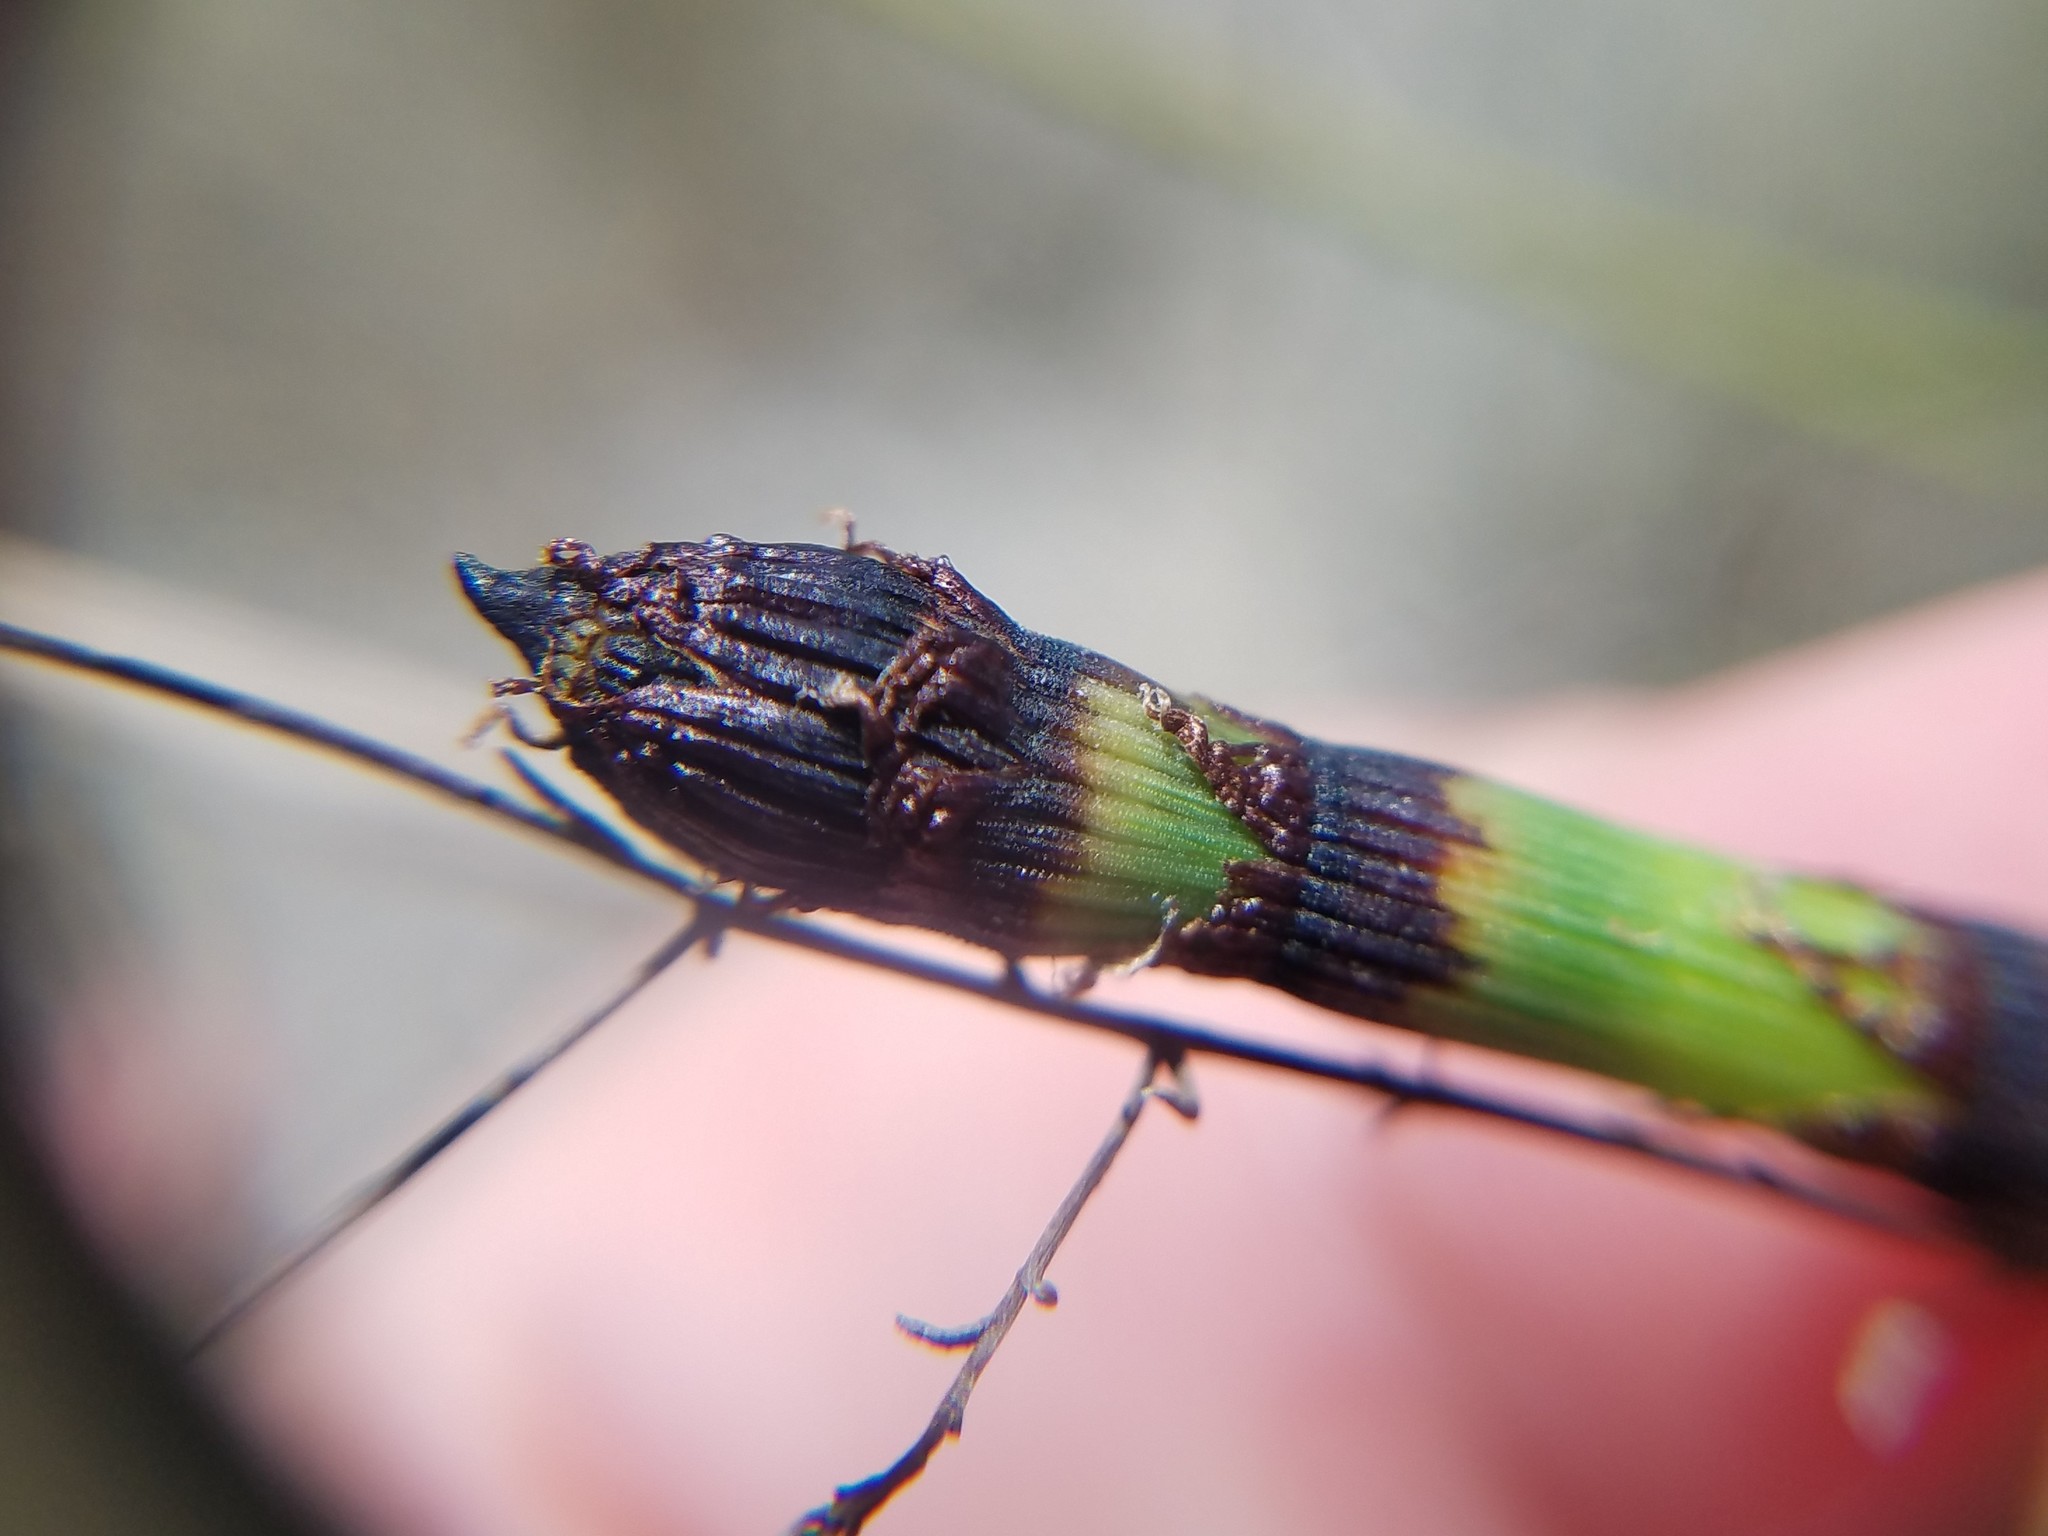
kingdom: Plantae
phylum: Tracheophyta
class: Polypodiopsida
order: Equisetales
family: Equisetaceae
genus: Equisetum
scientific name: Equisetum praealtum
